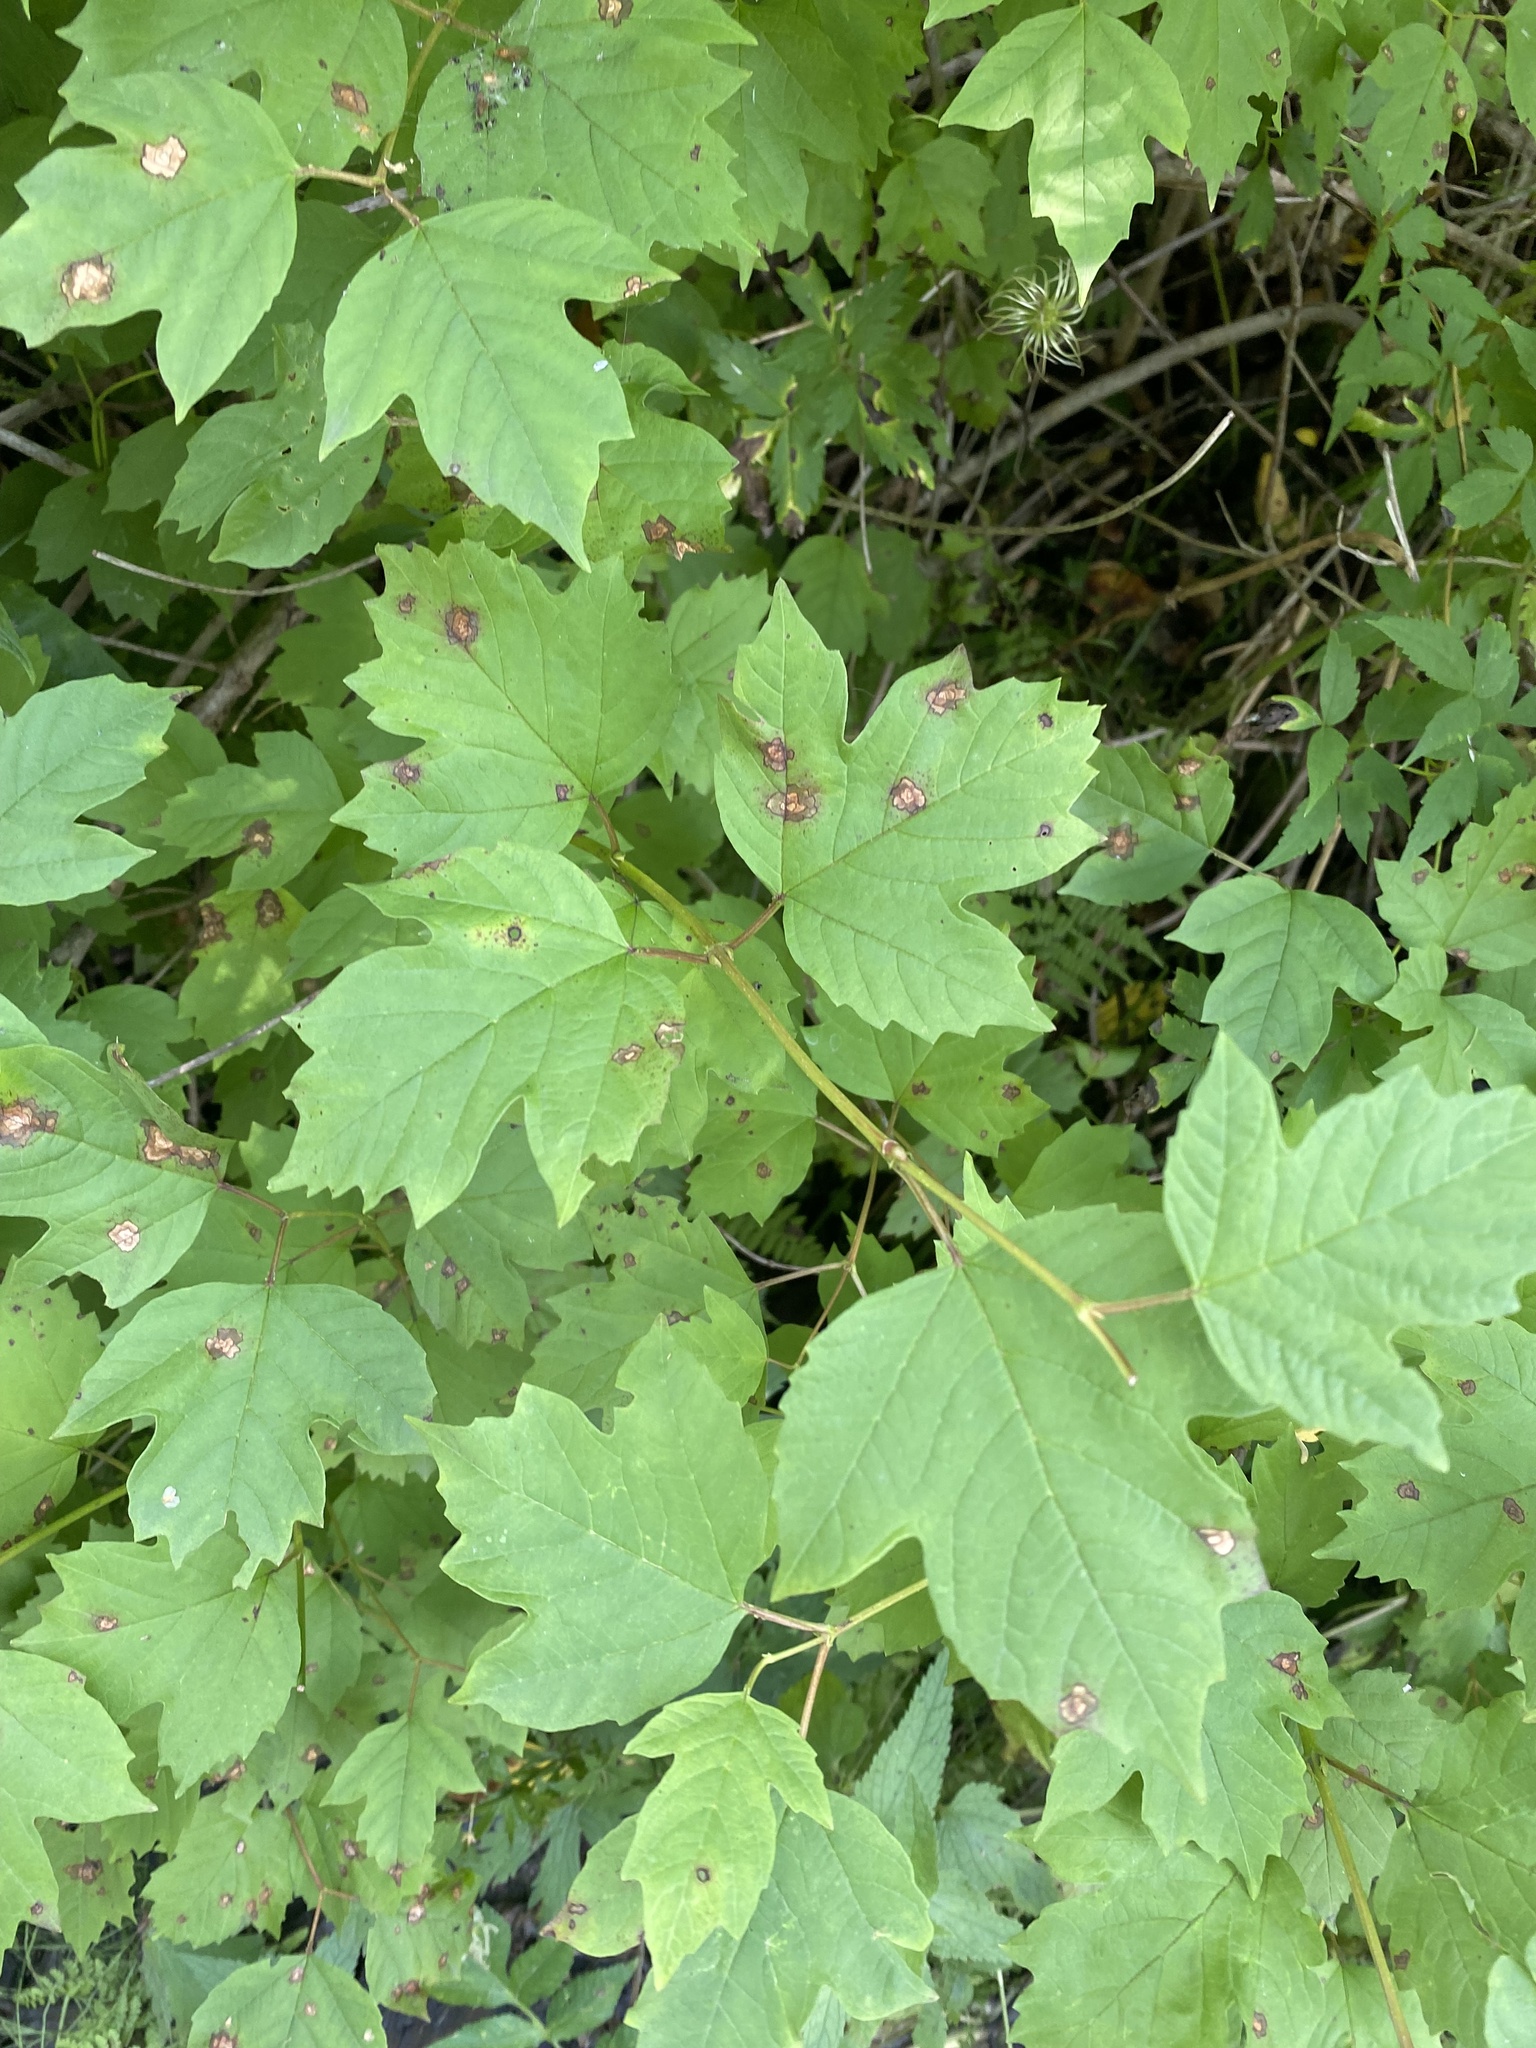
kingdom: Plantae
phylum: Tracheophyta
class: Magnoliopsida
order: Dipsacales
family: Viburnaceae
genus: Viburnum
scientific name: Viburnum opulus
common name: Guelder-rose
